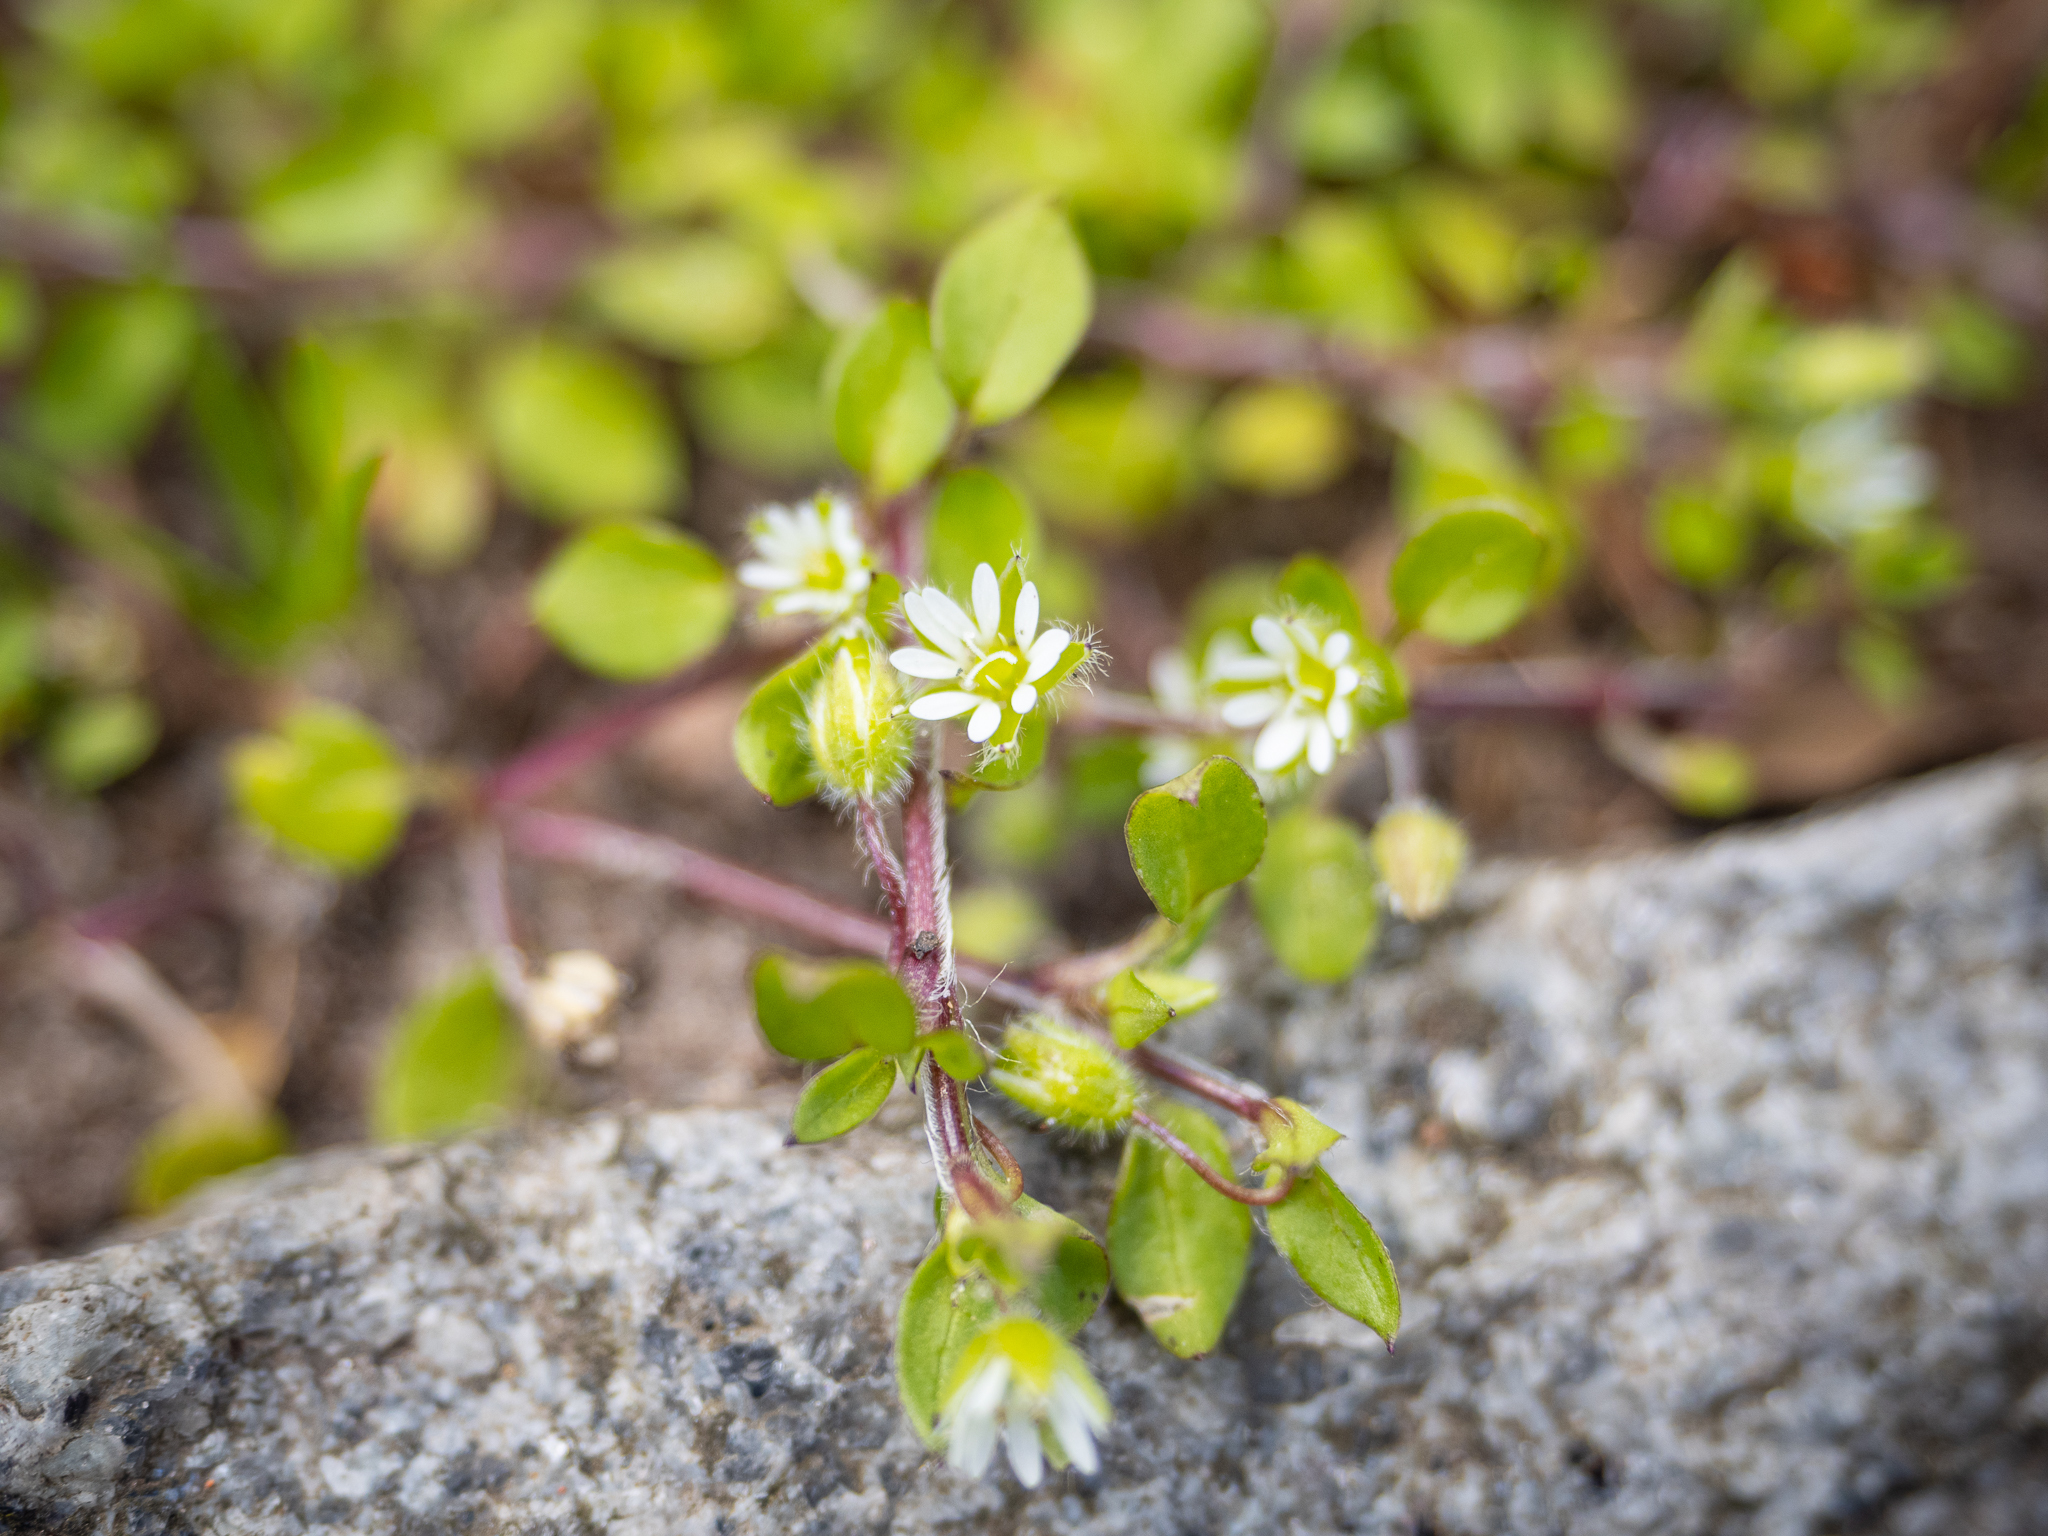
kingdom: Plantae
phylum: Tracheophyta
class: Magnoliopsida
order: Caryophyllales
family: Caryophyllaceae
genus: Stellaria
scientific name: Stellaria media
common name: Common chickweed
